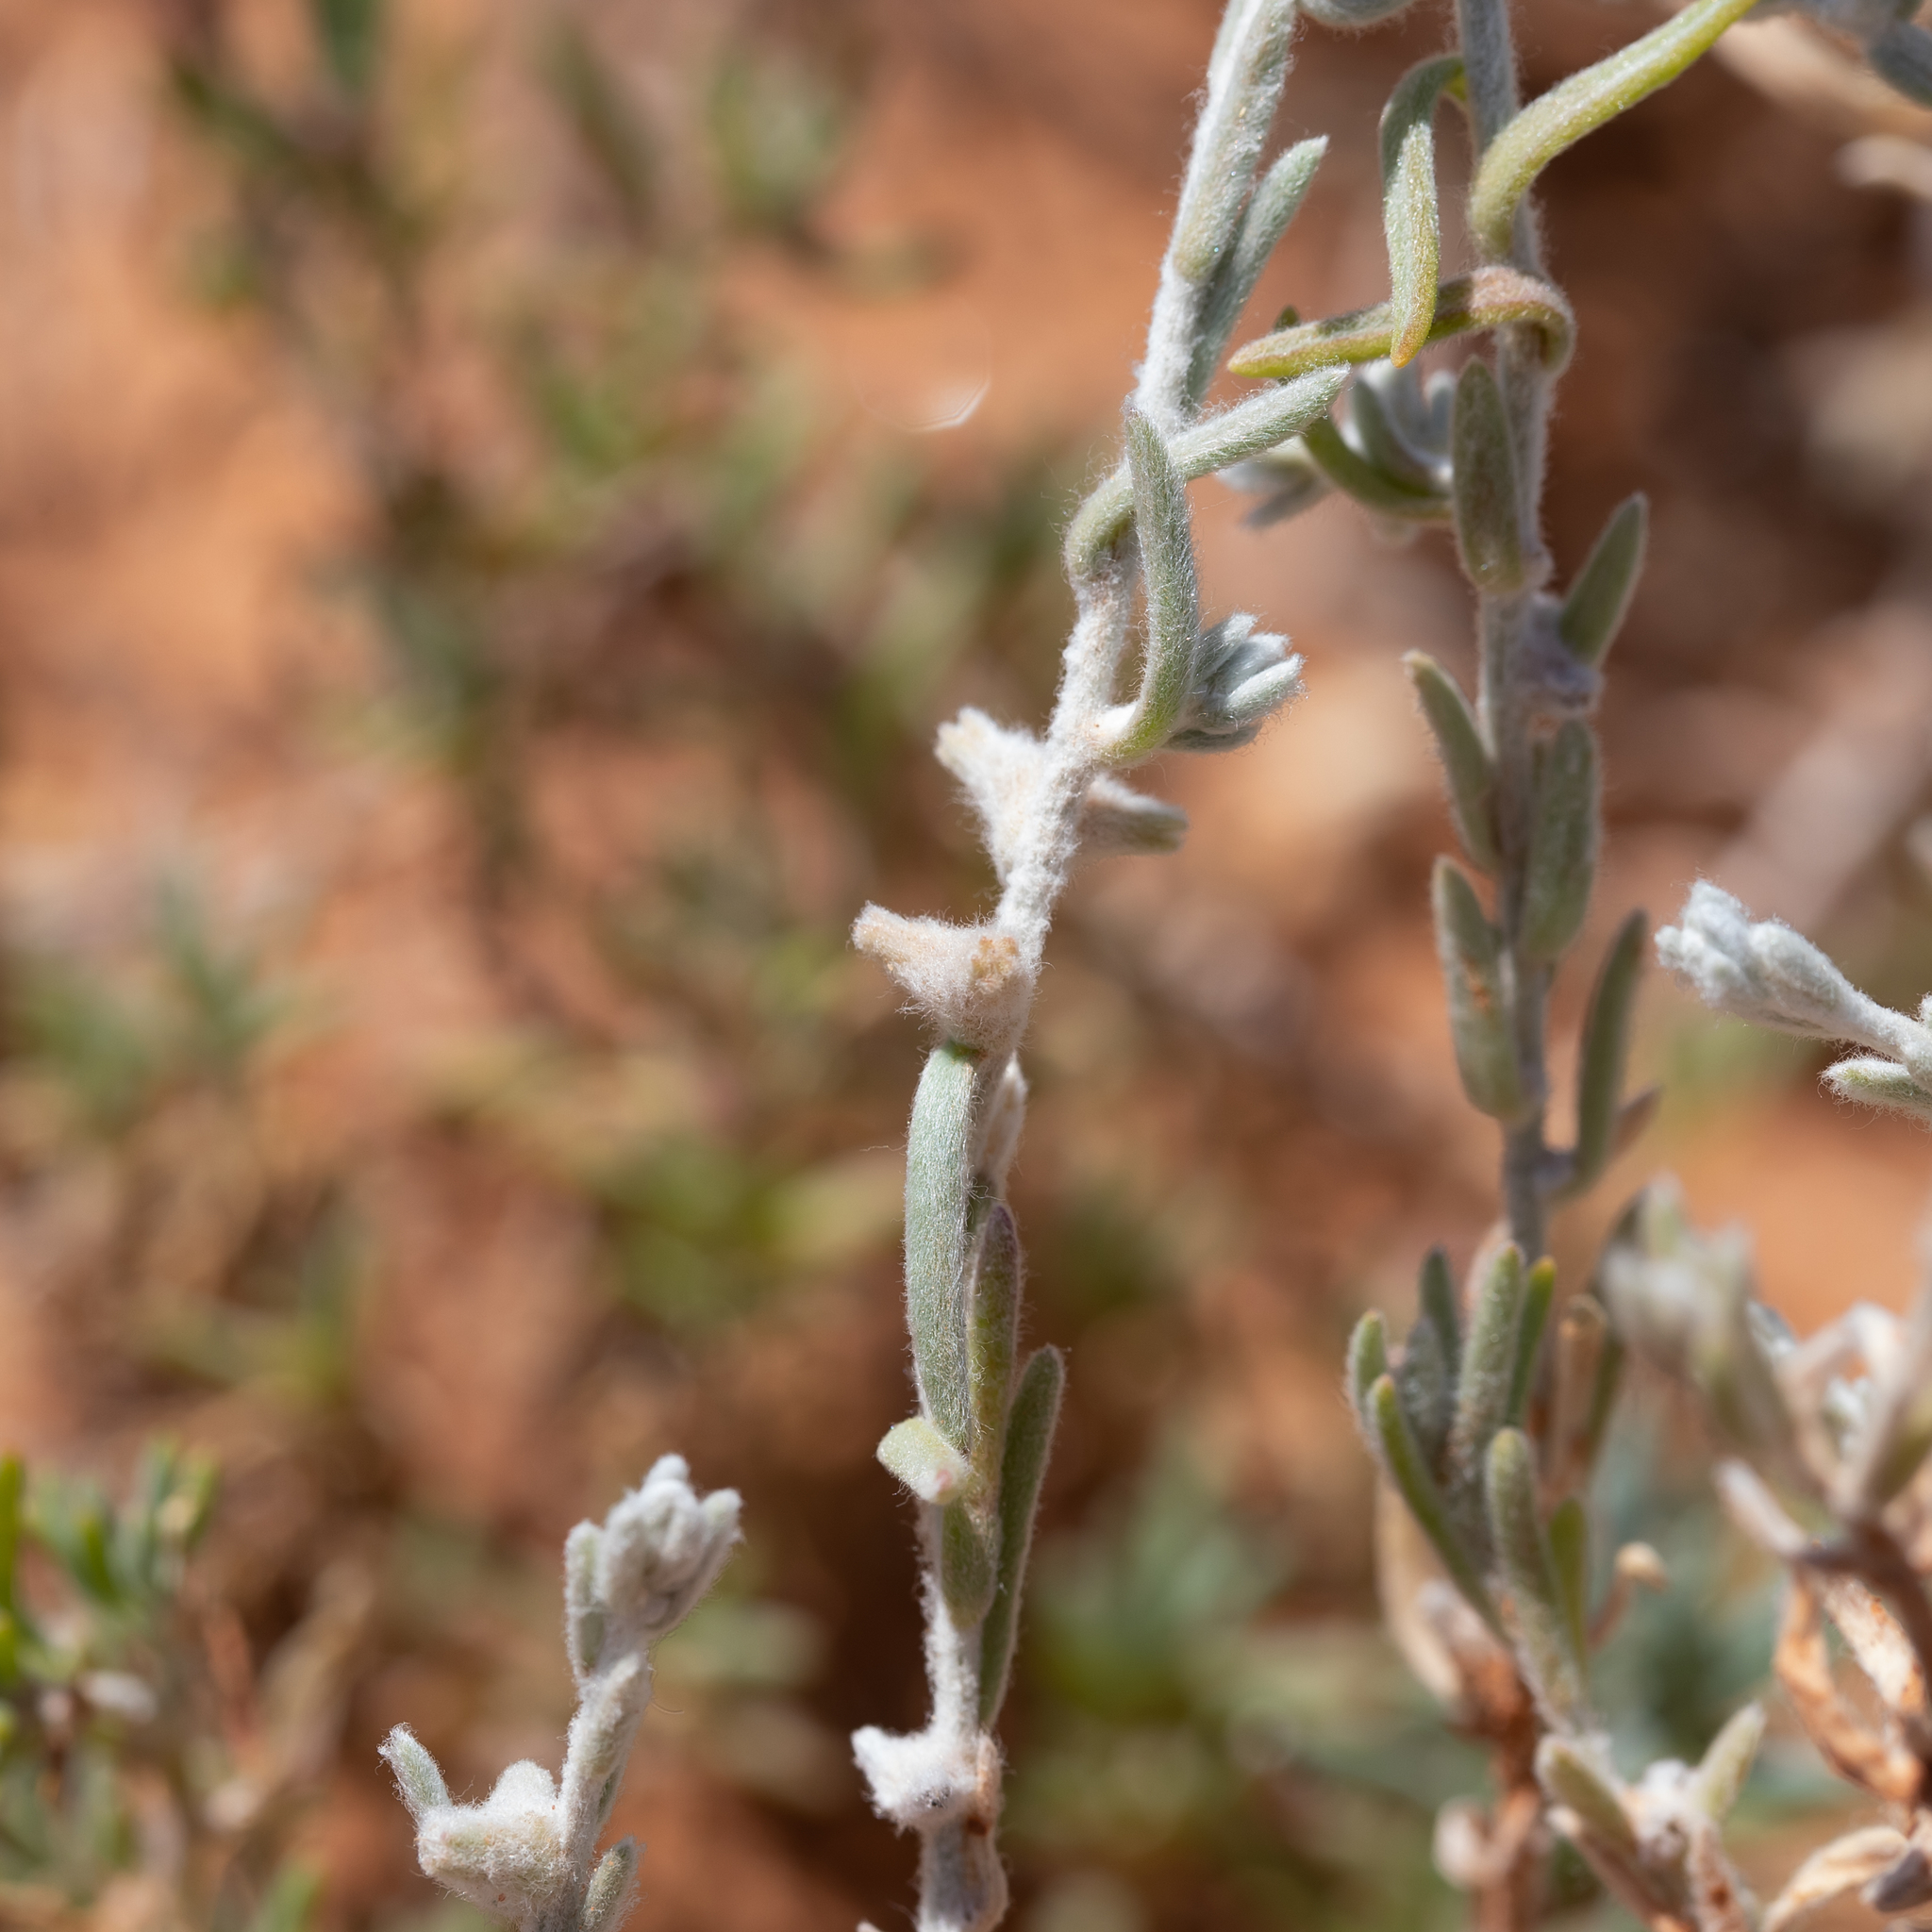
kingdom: Plantae
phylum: Tracheophyta
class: Magnoliopsida
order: Caryophyllales
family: Amaranthaceae
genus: Dissocarpus
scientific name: Dissocarpus biflorus
